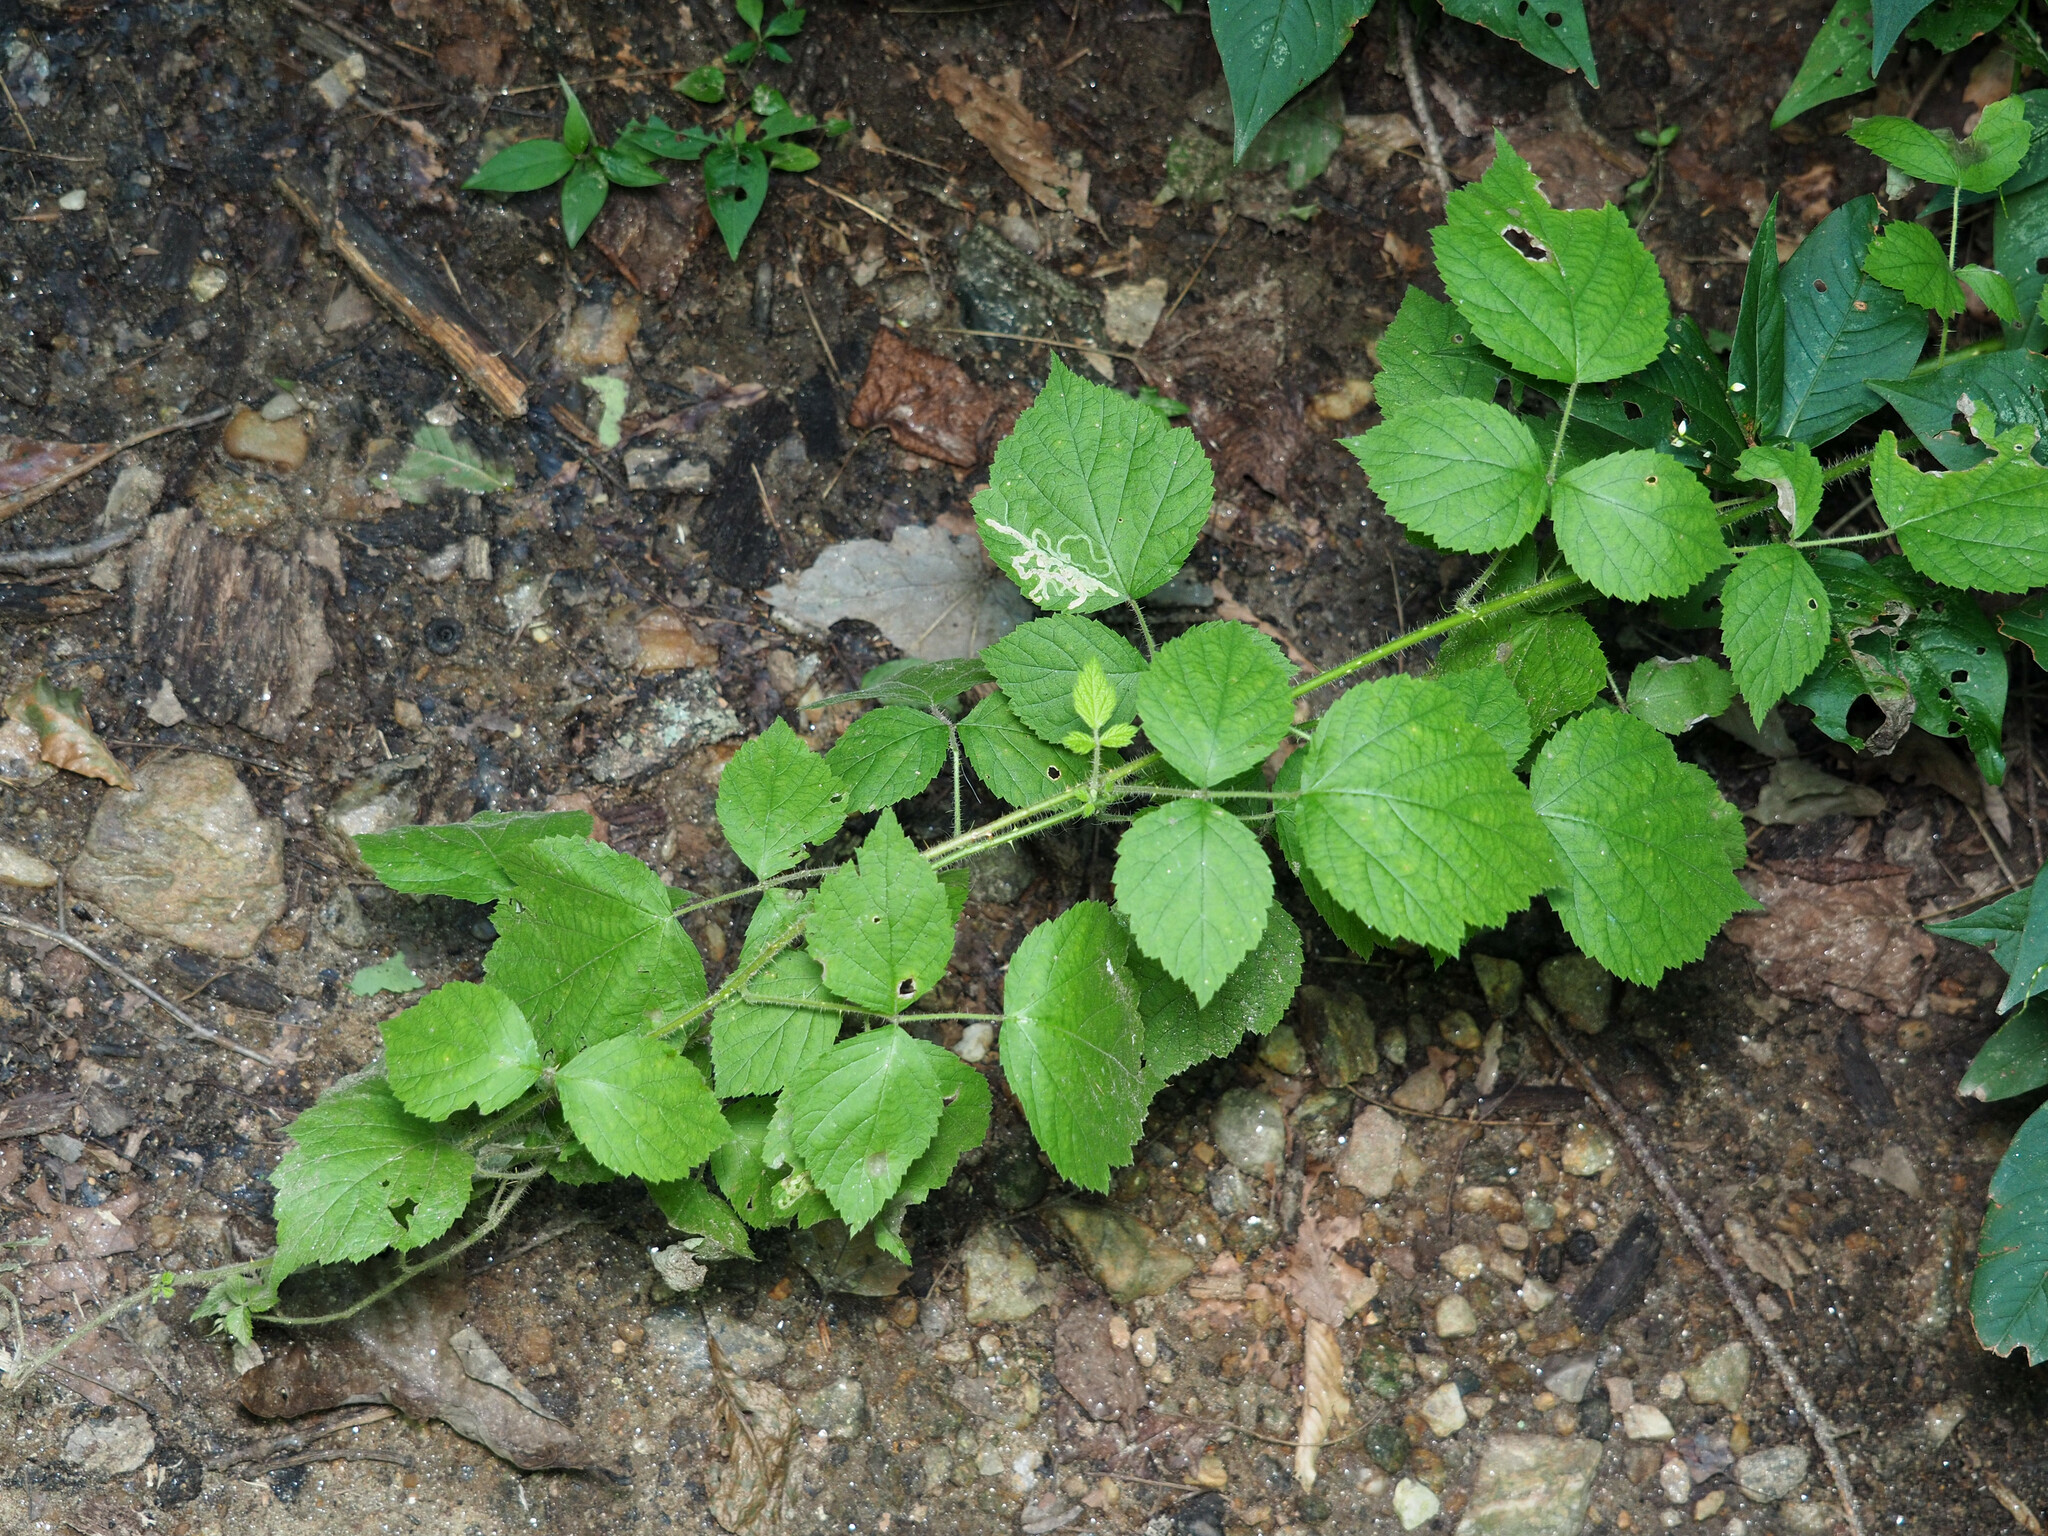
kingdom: Plantae
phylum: Tracheophyta
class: Magnoliopsida
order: Rosales
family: Rosaceae
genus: Rubus
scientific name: Rubus phoenicolasius
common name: Japanese wineberry
